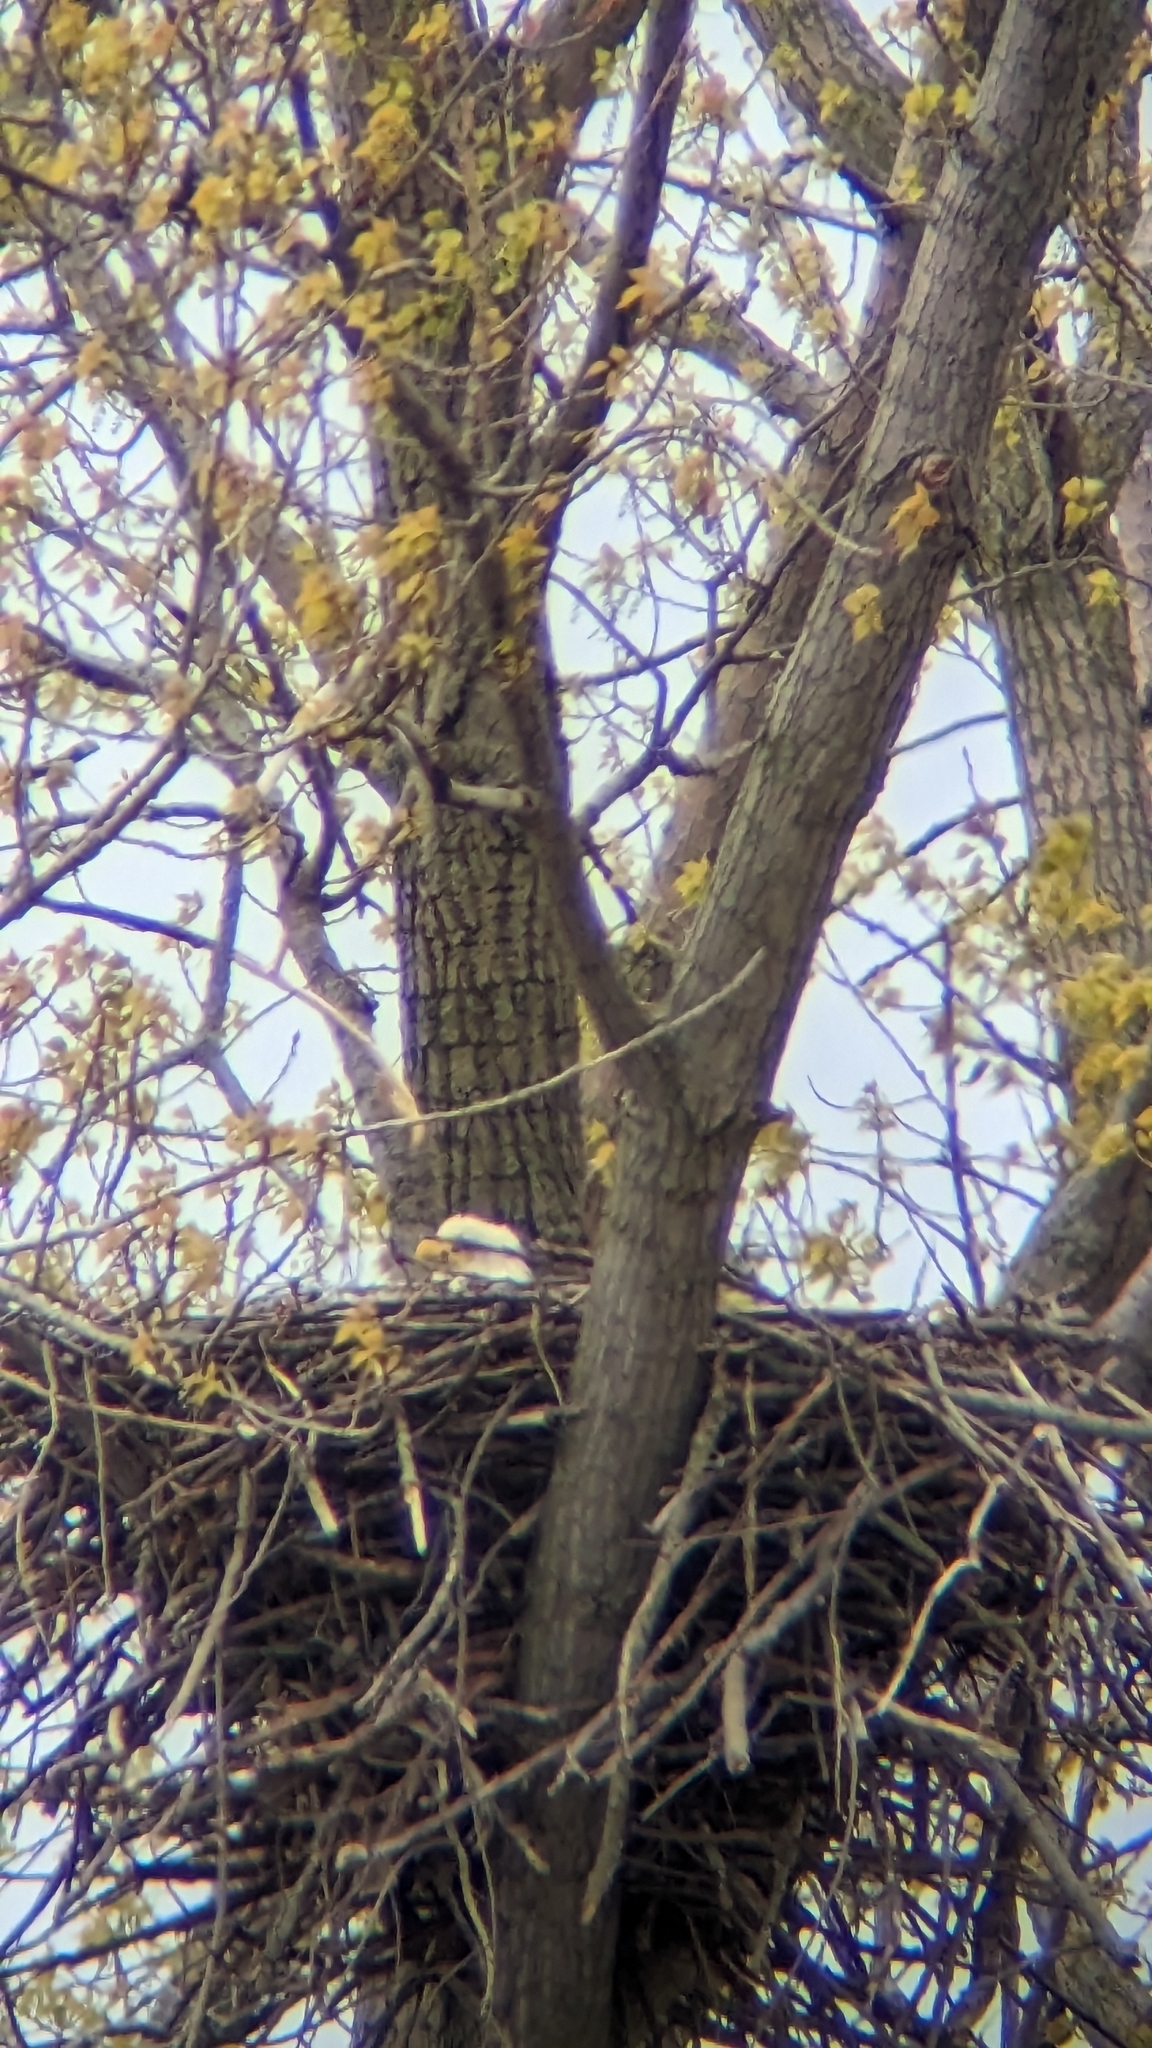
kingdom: Animalia
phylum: Chordata
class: Aves
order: Accipitriformes
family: Accipitridae
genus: Haliaeetus
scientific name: Haliaeetus leucocephalus
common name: Bald eagle
